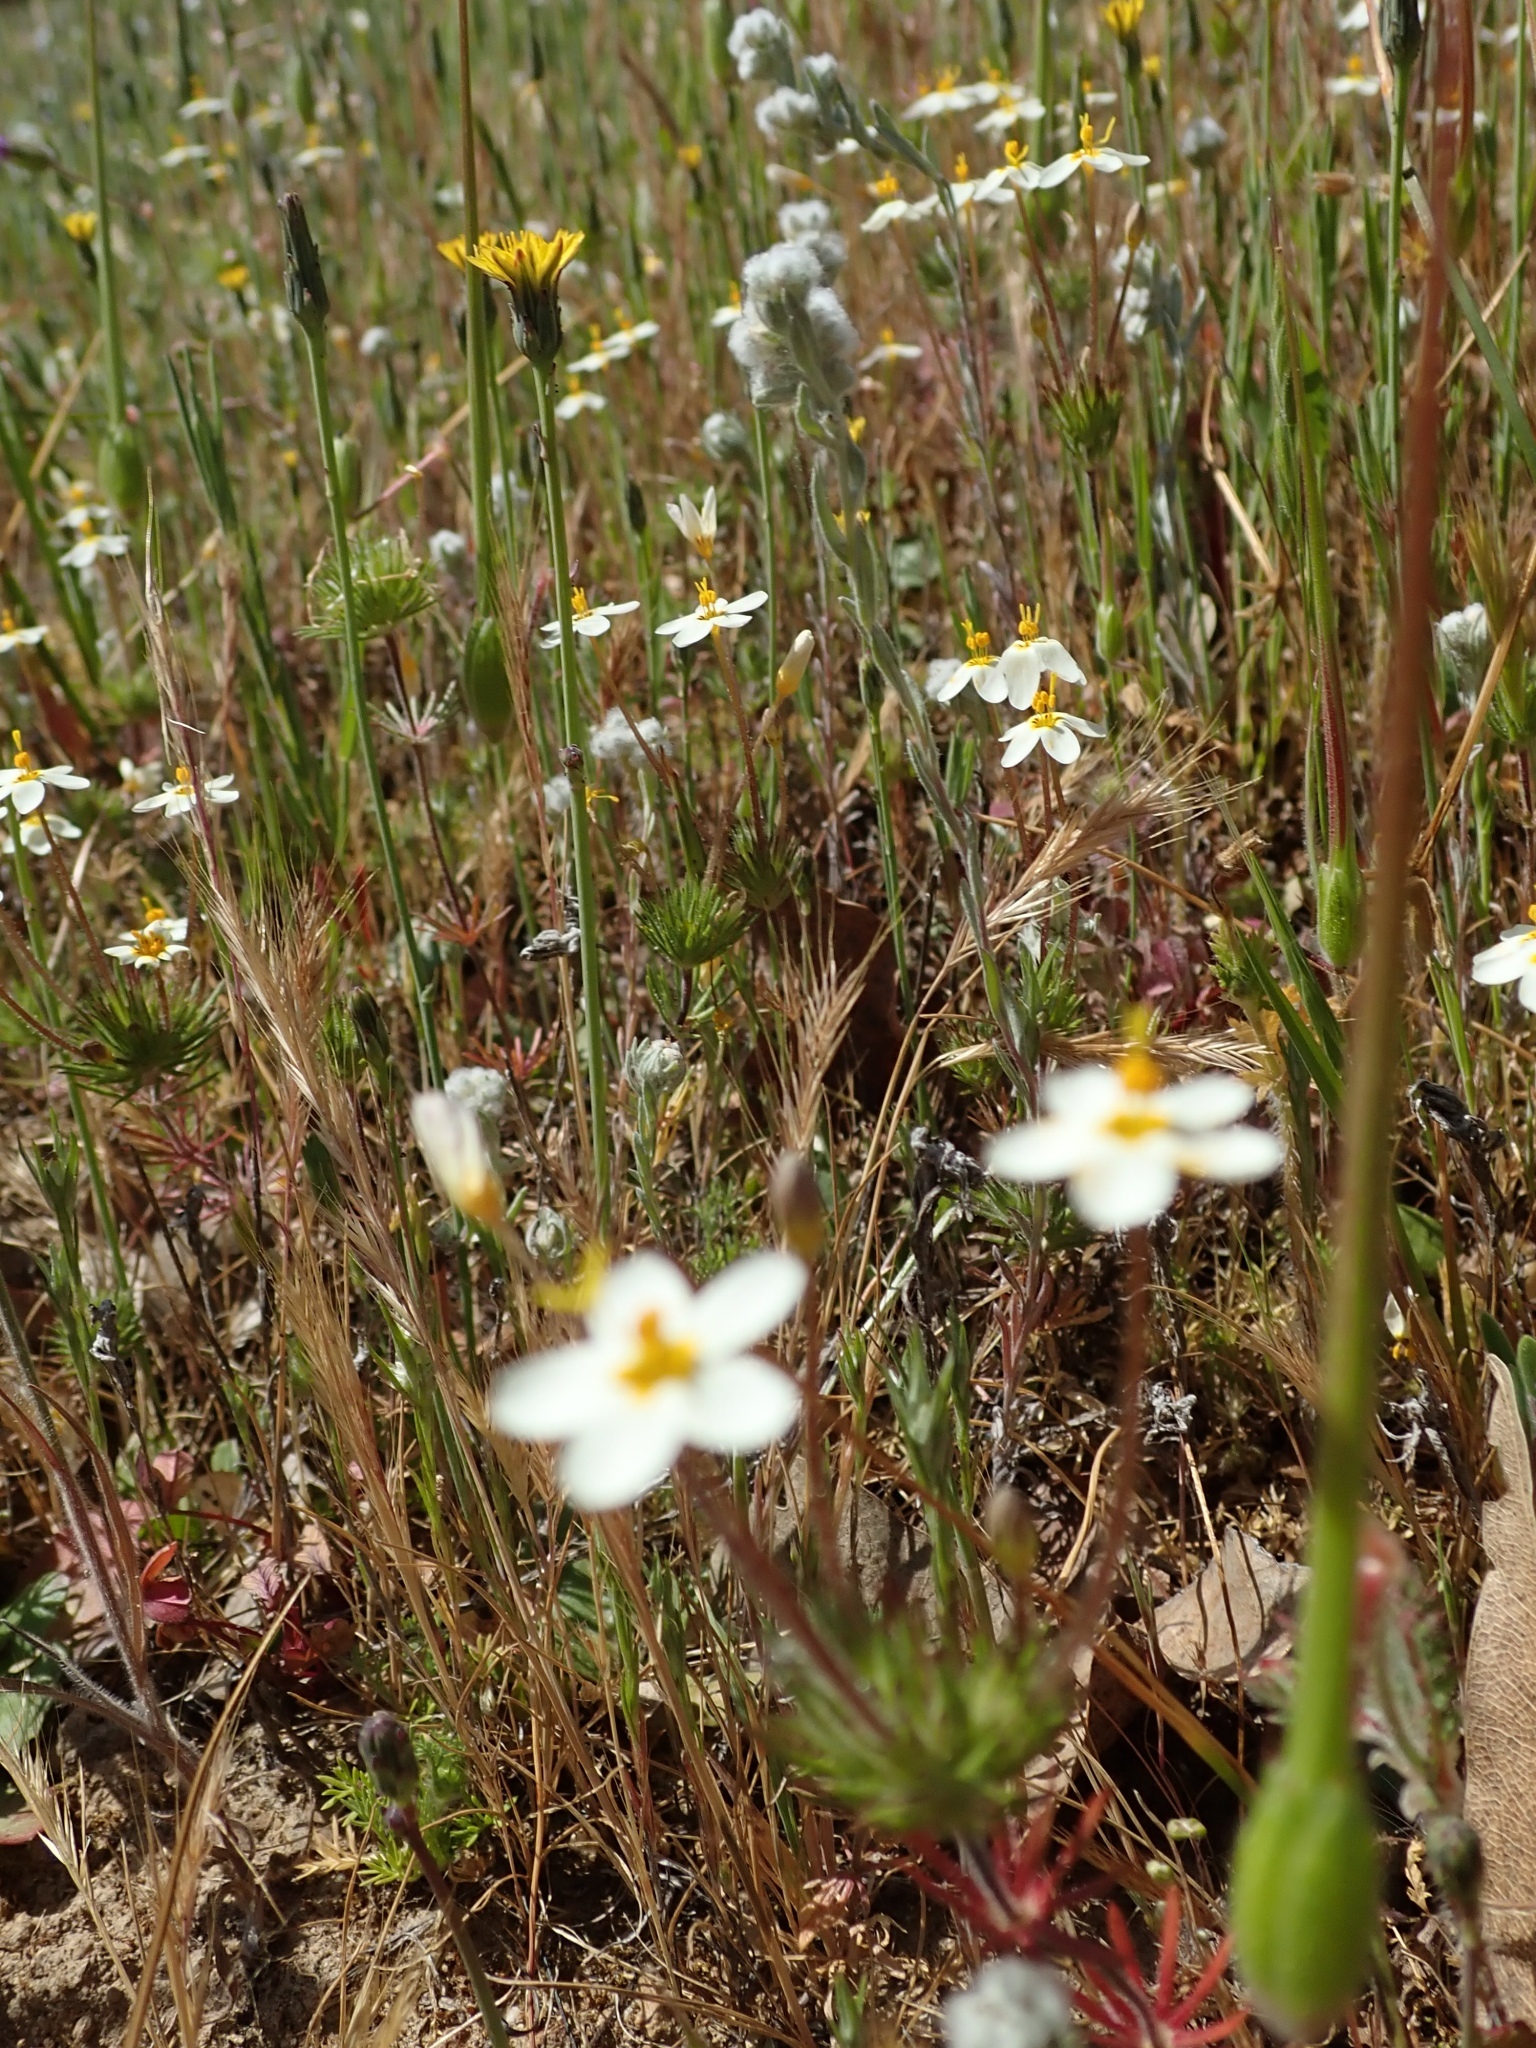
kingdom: Plantae
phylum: Tracheophyta
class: Magnoliopsida
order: Ericales
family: Polemoniaceae
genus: Leptosiphon
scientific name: Leptosiphon parviflorus
